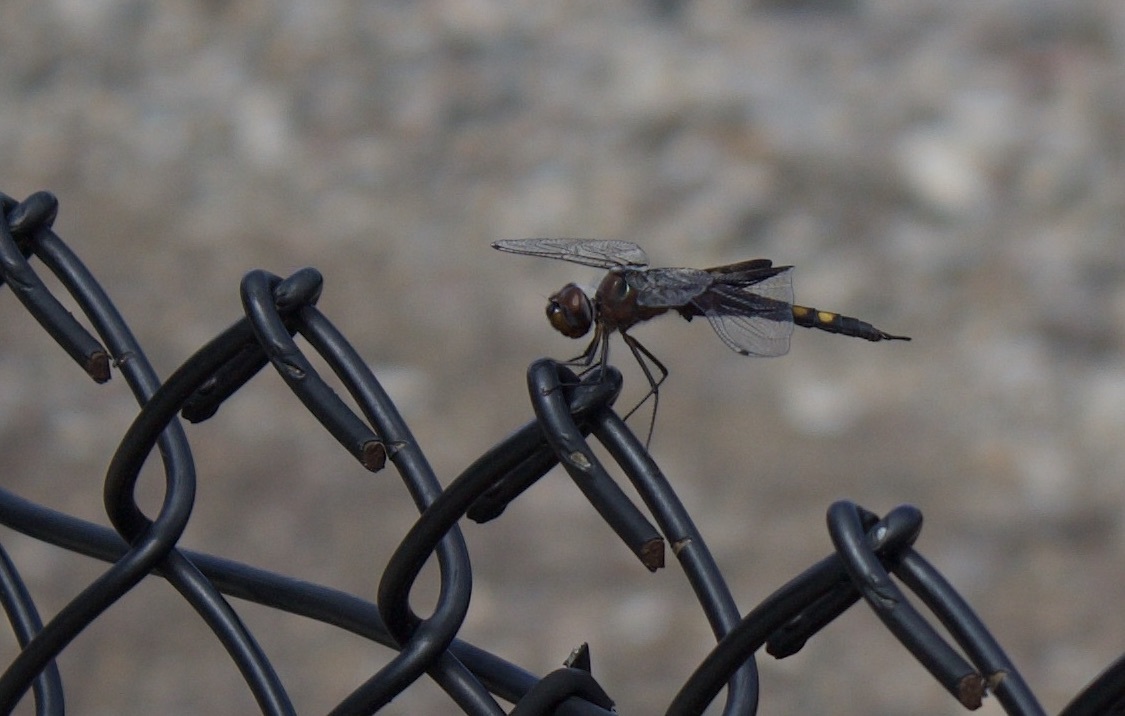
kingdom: Animalia
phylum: Arthropoda
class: Insecta
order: Odonata
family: Libellulidae
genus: Tramea
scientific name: Tramea lacerata
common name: Black saddlebags
